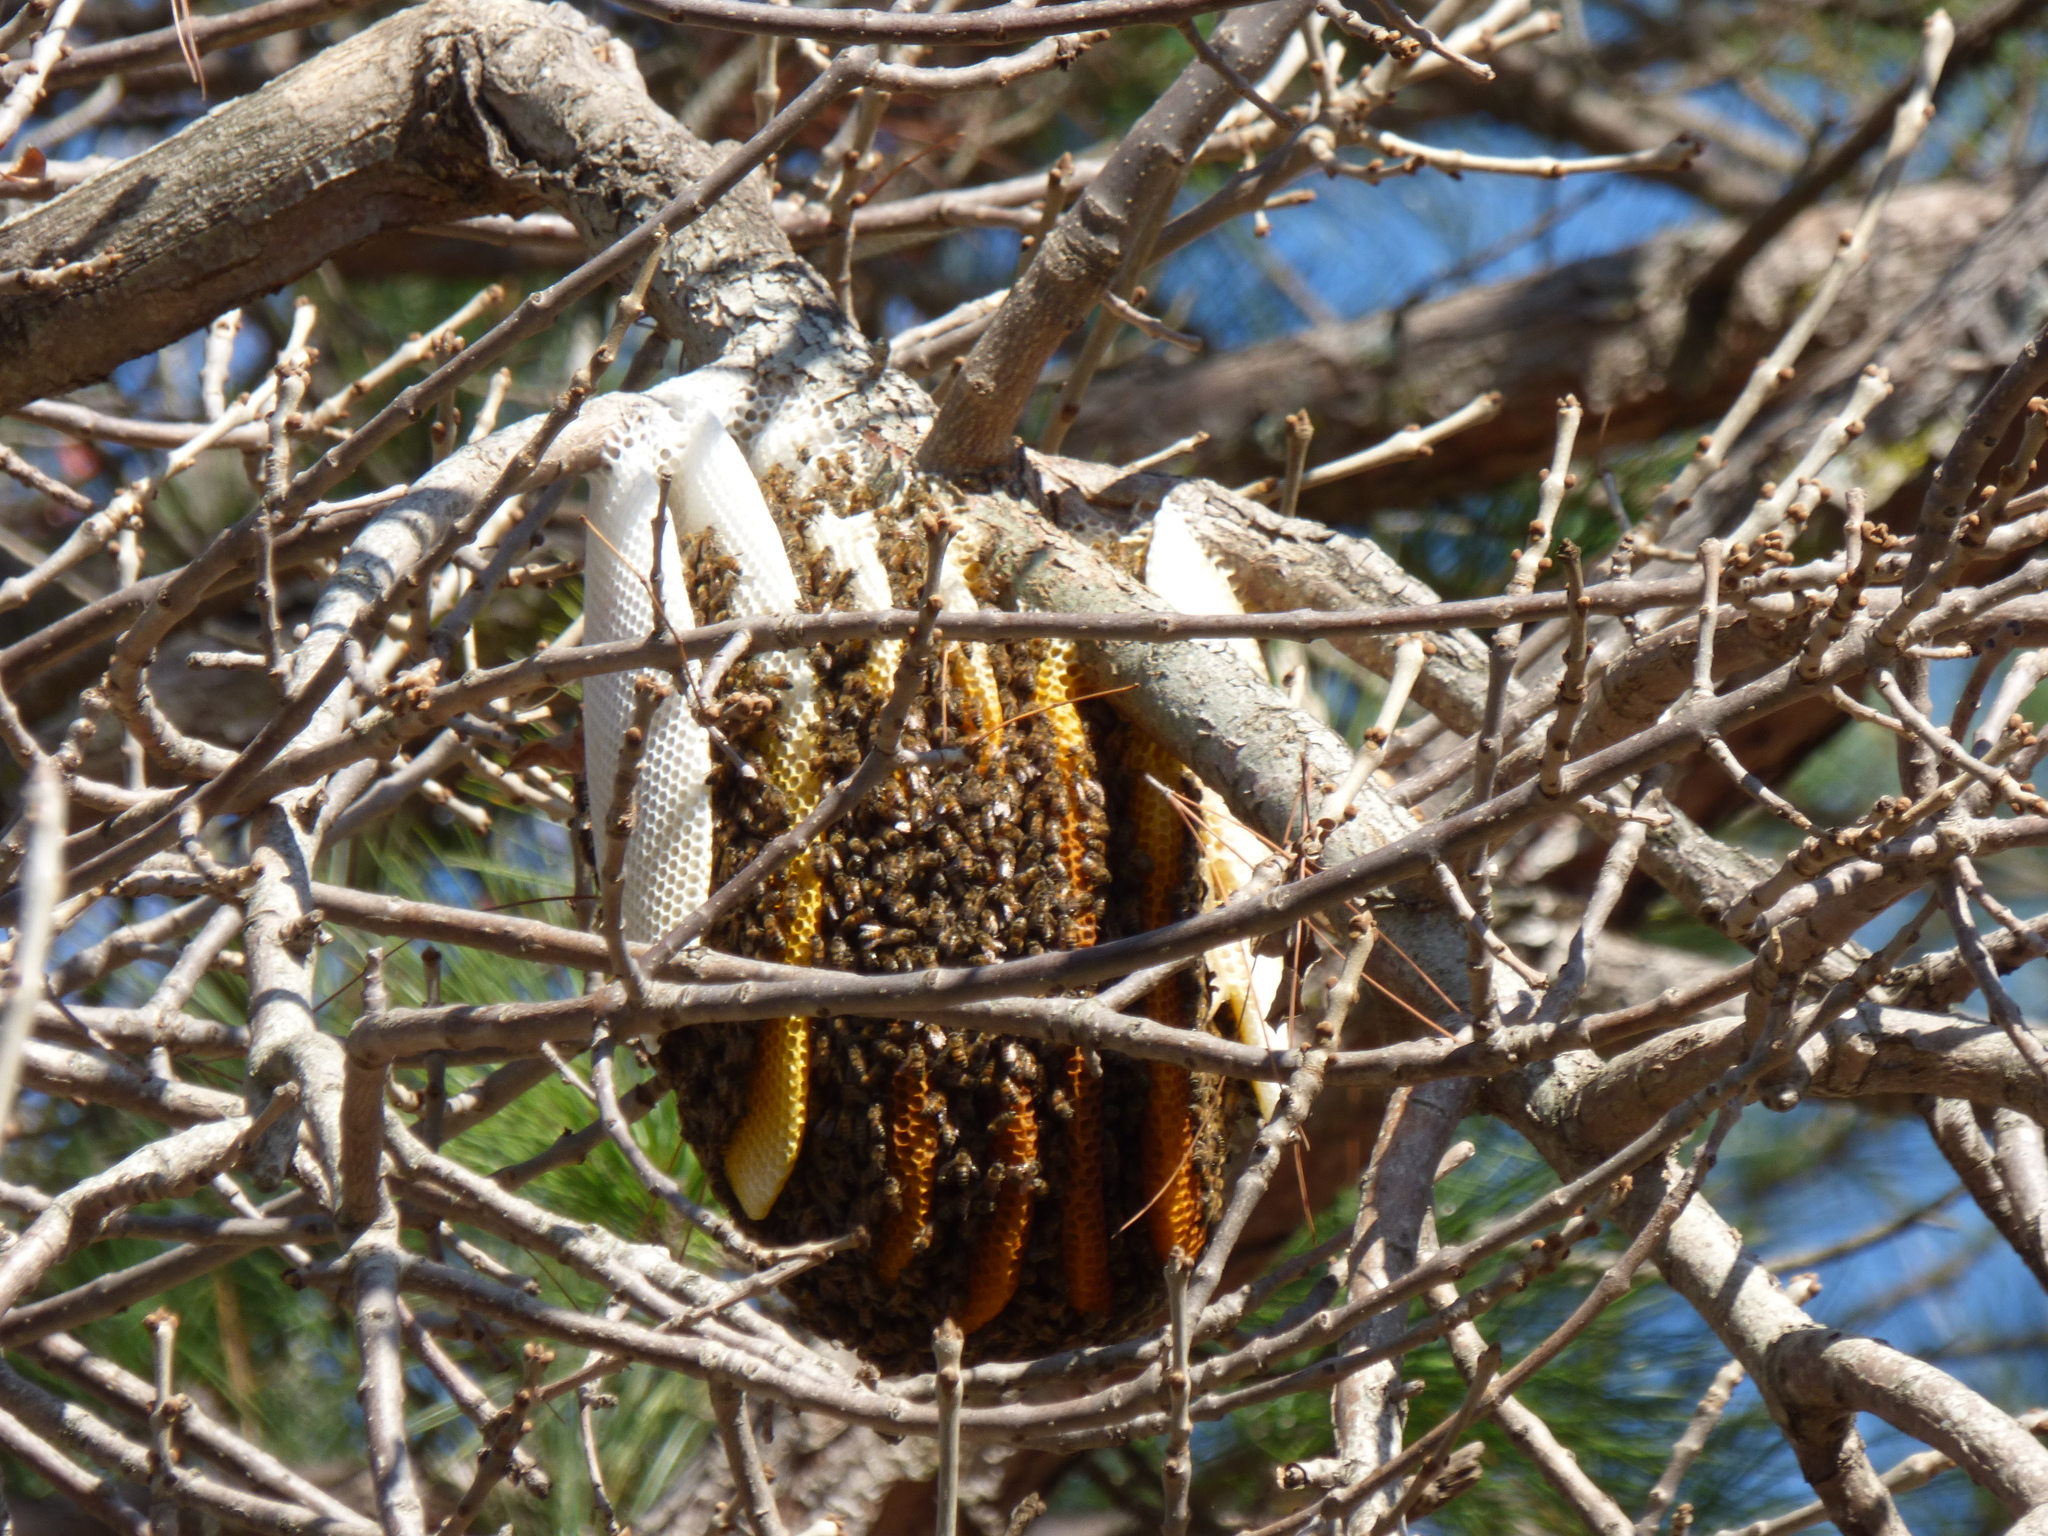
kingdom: Animalia
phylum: Arthropoda
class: Insecta
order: Hymenoptera
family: Apidae
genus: Apis
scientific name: Apis mellifera
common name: Honey bee
